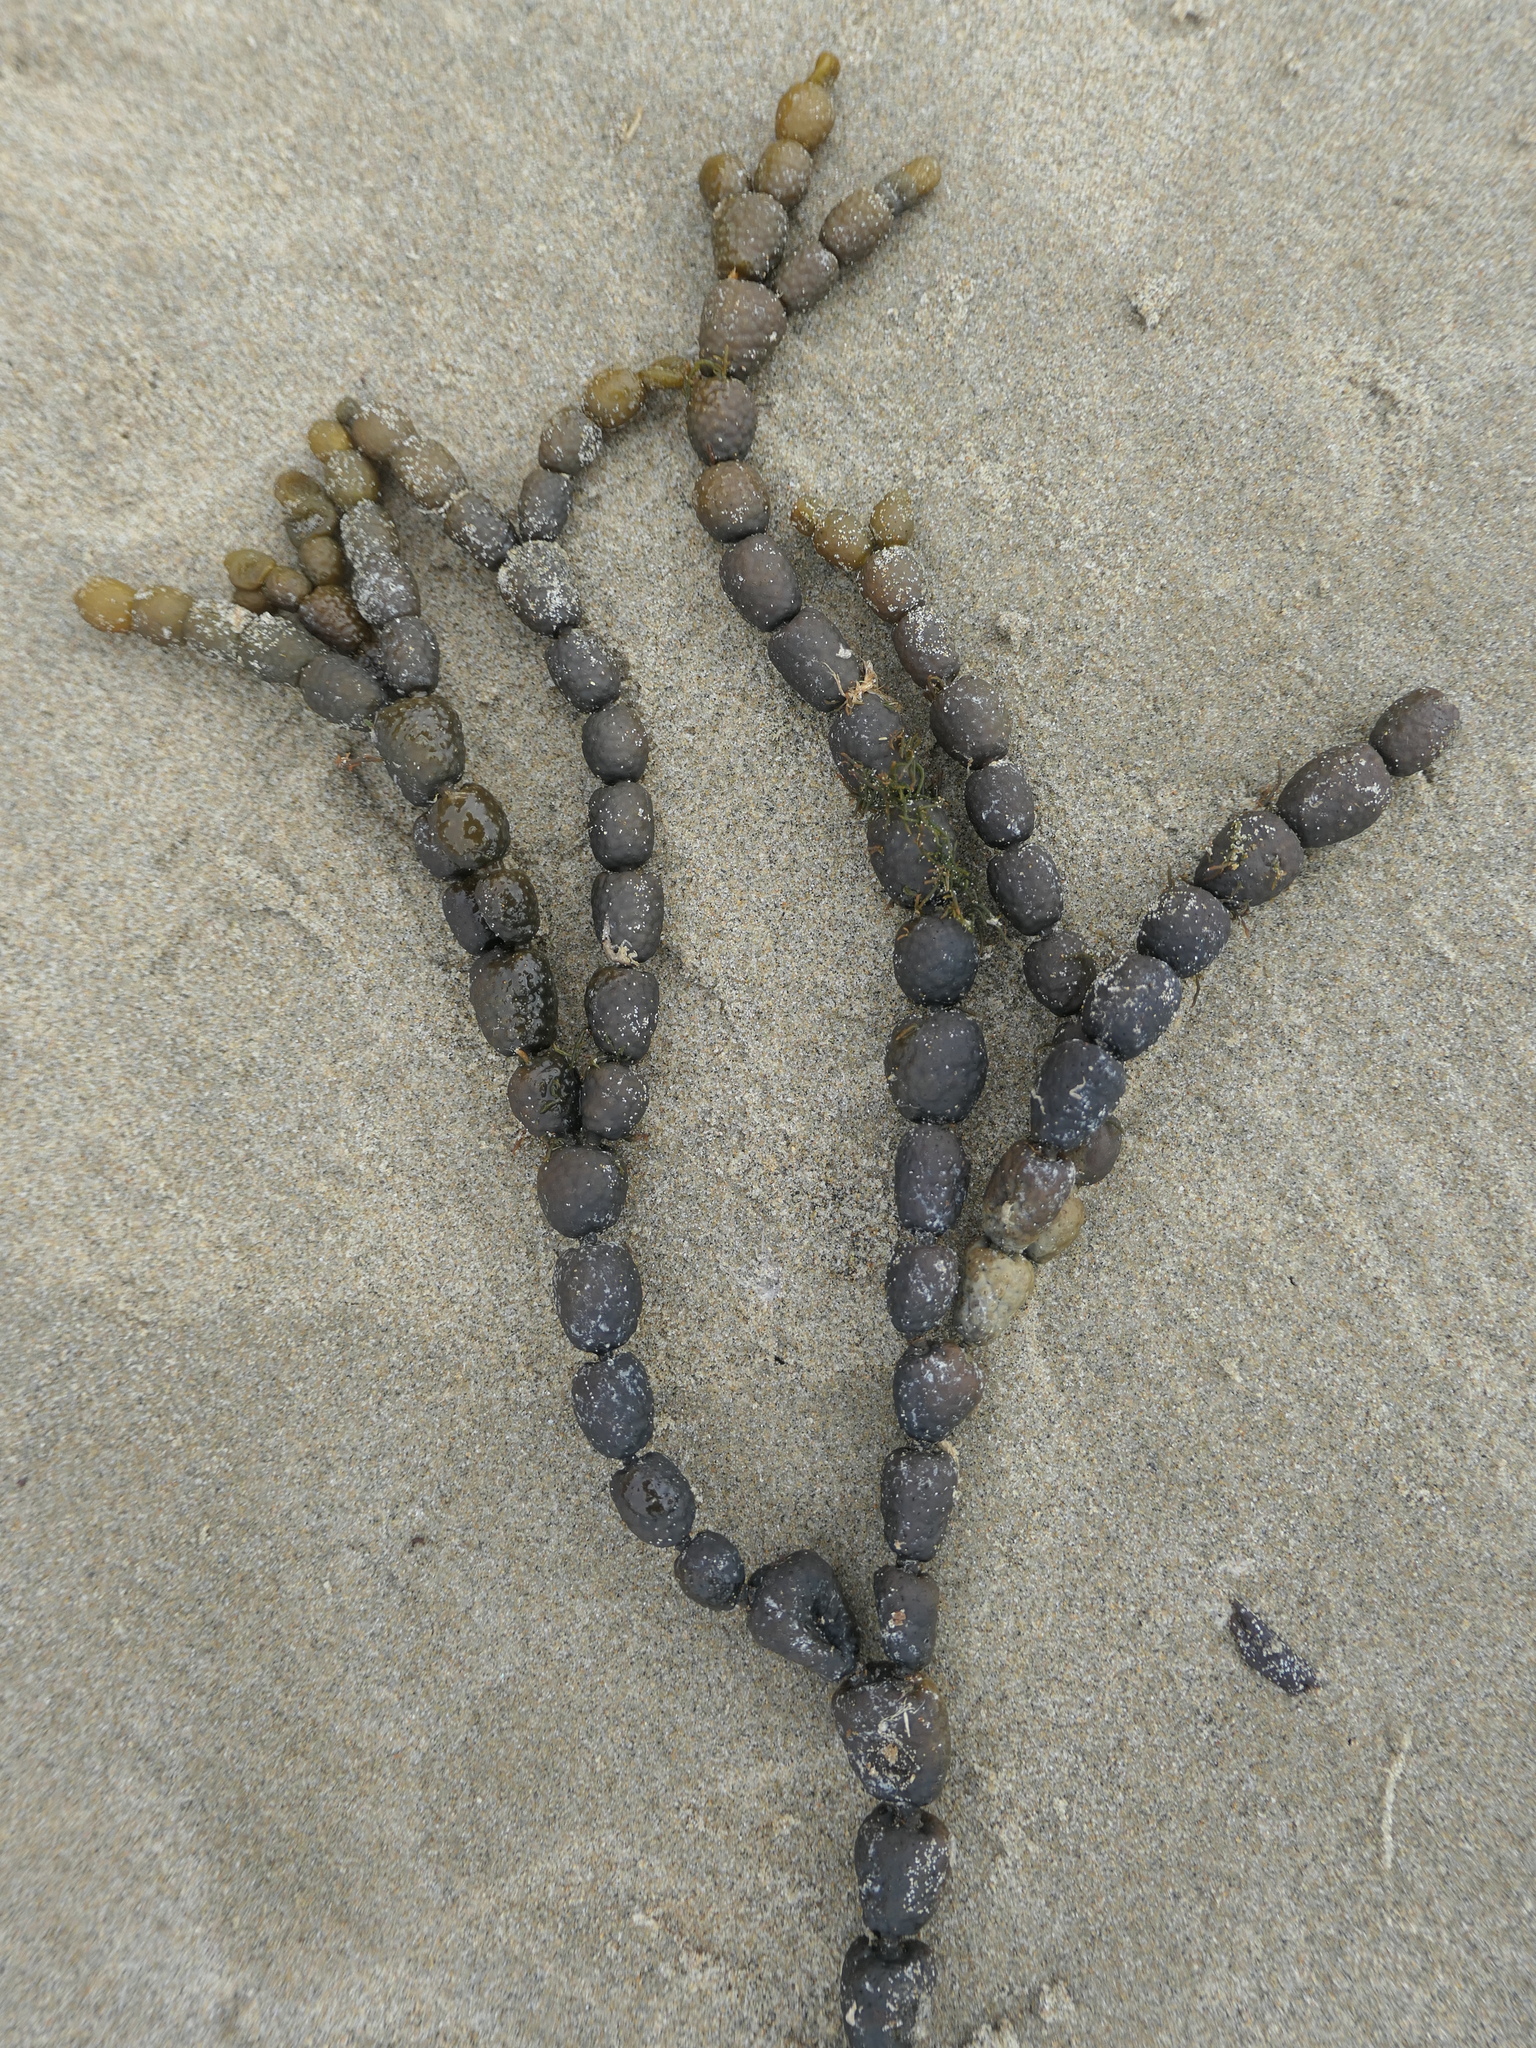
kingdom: Chromista
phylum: Ochrophyta
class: Phaeophyceae
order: Fucales
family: Hormosiraceae
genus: Hormosira
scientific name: Hormosira banksii
